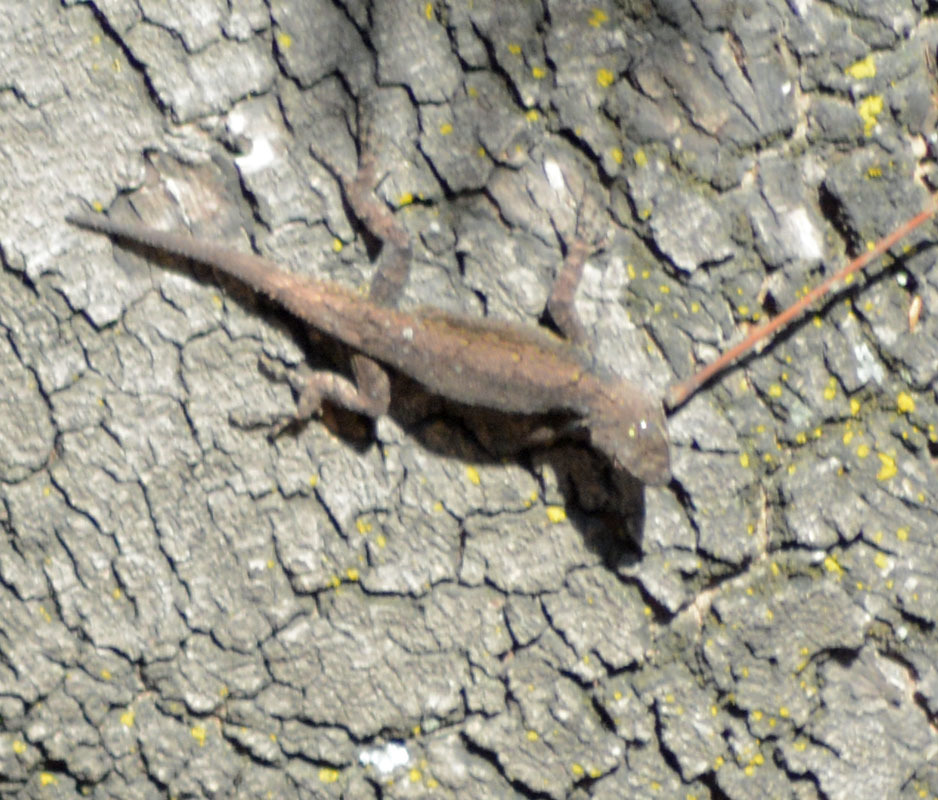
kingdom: Animalia
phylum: Chordata
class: Squamata
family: Phrynosomatidae
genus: Sceloporus
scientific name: Sceloporus grammicus
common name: Mesquite lizard
